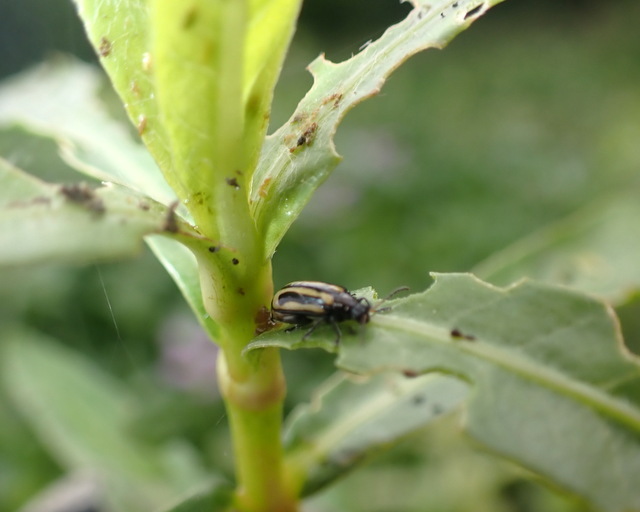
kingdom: Animalia
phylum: Arthropoda
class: Insecta
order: Coleoptera
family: Chrysomelidae
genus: Agasicles
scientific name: Agasicles hygrophila
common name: Alligatorweed flea beetle
